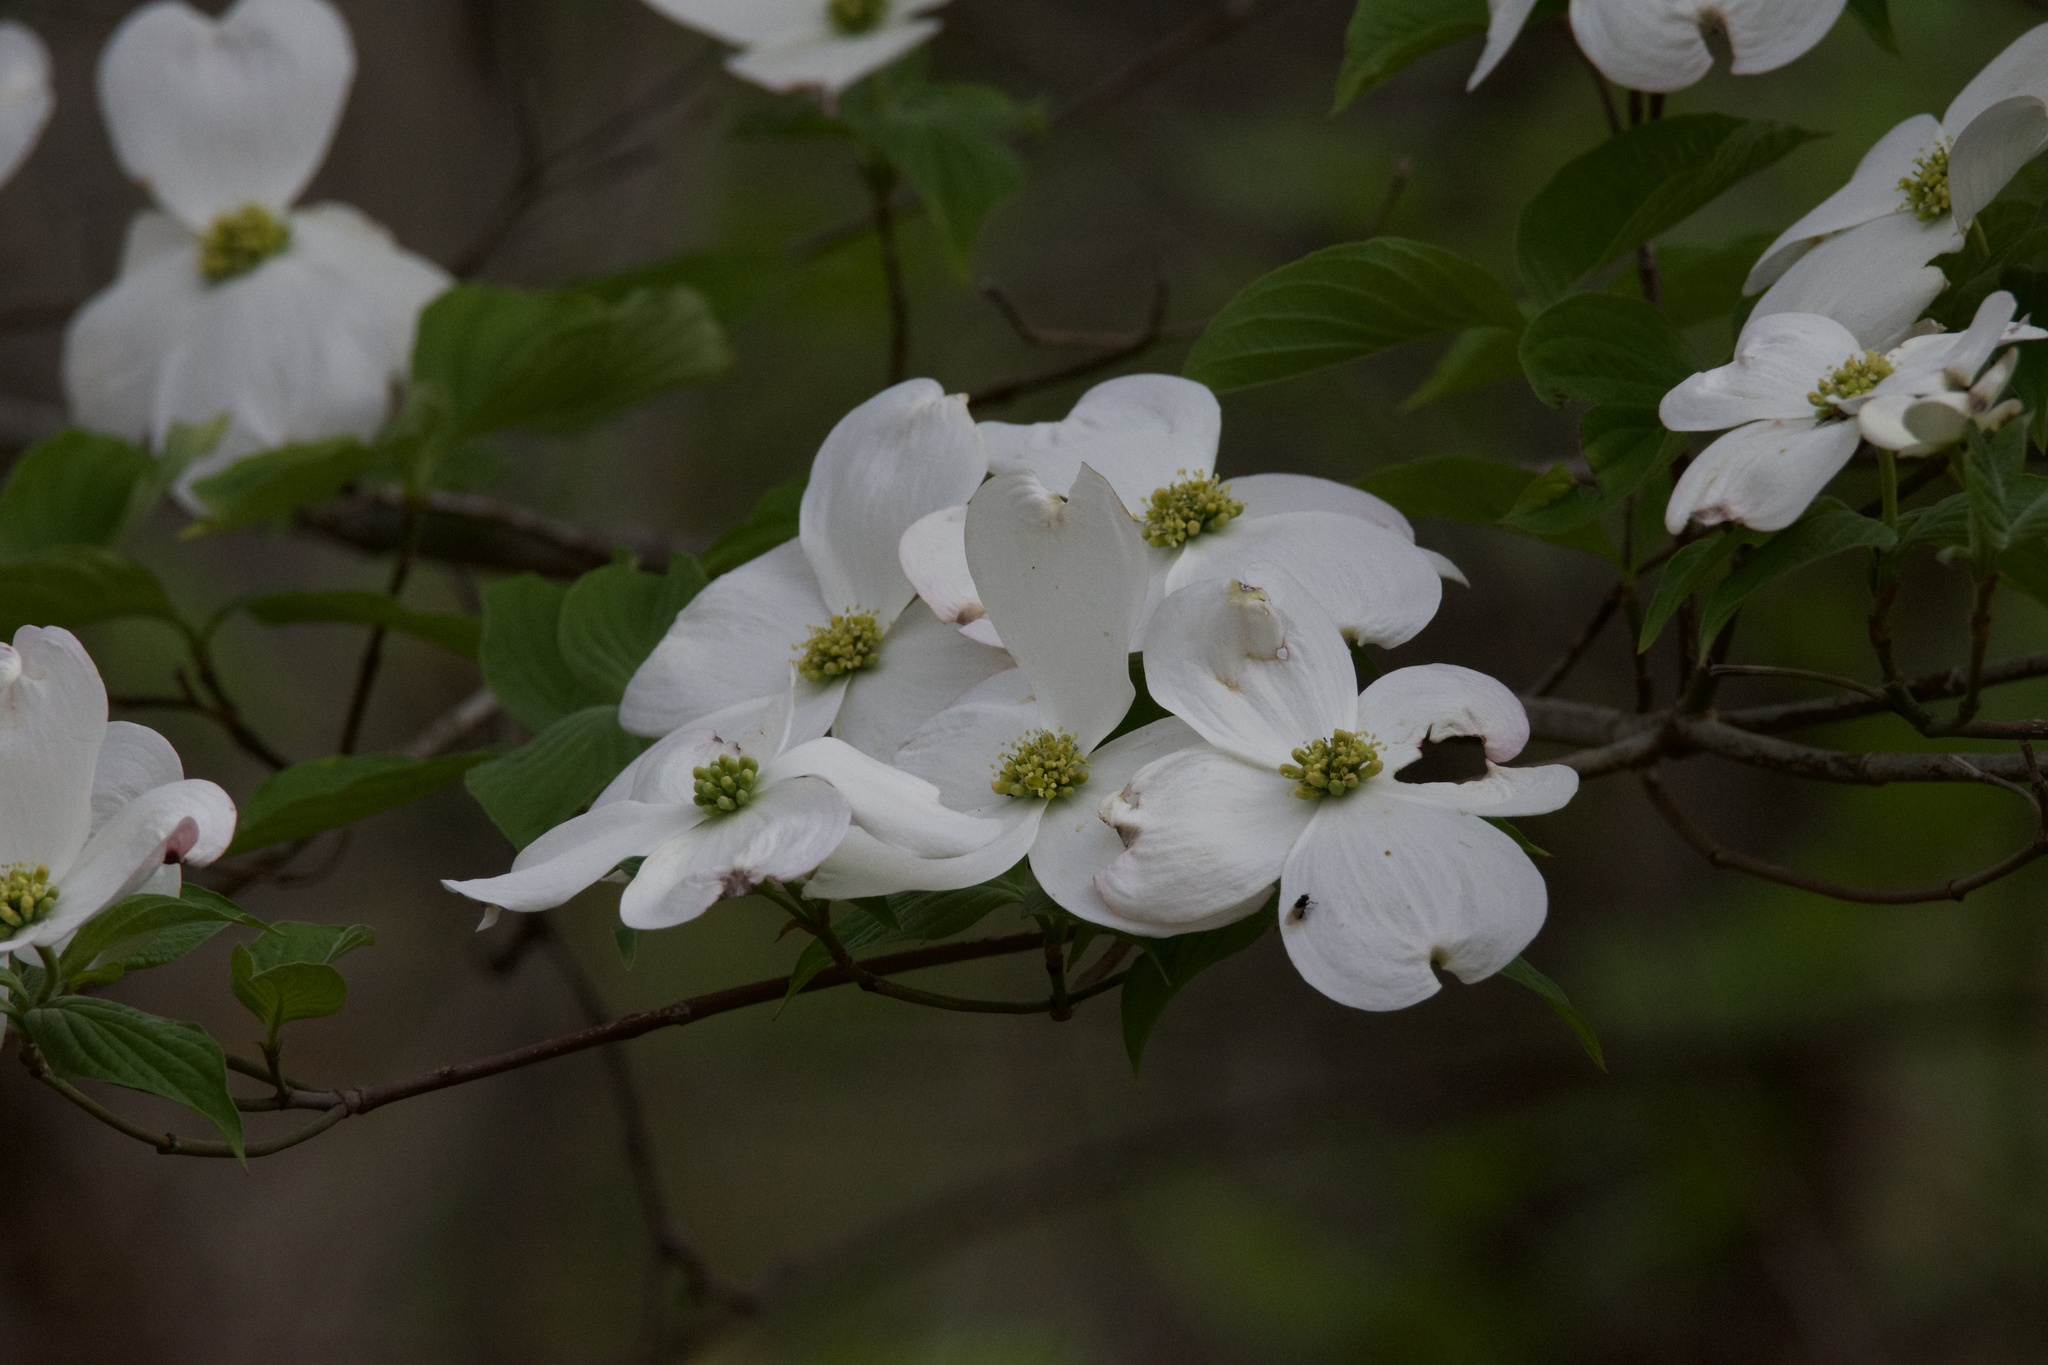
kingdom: Plantae
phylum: Tracheophyta
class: Magnoliopsida
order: Cornales
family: Cornaceae
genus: Cornus
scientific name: Cornus florida
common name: Flowering dogwood
